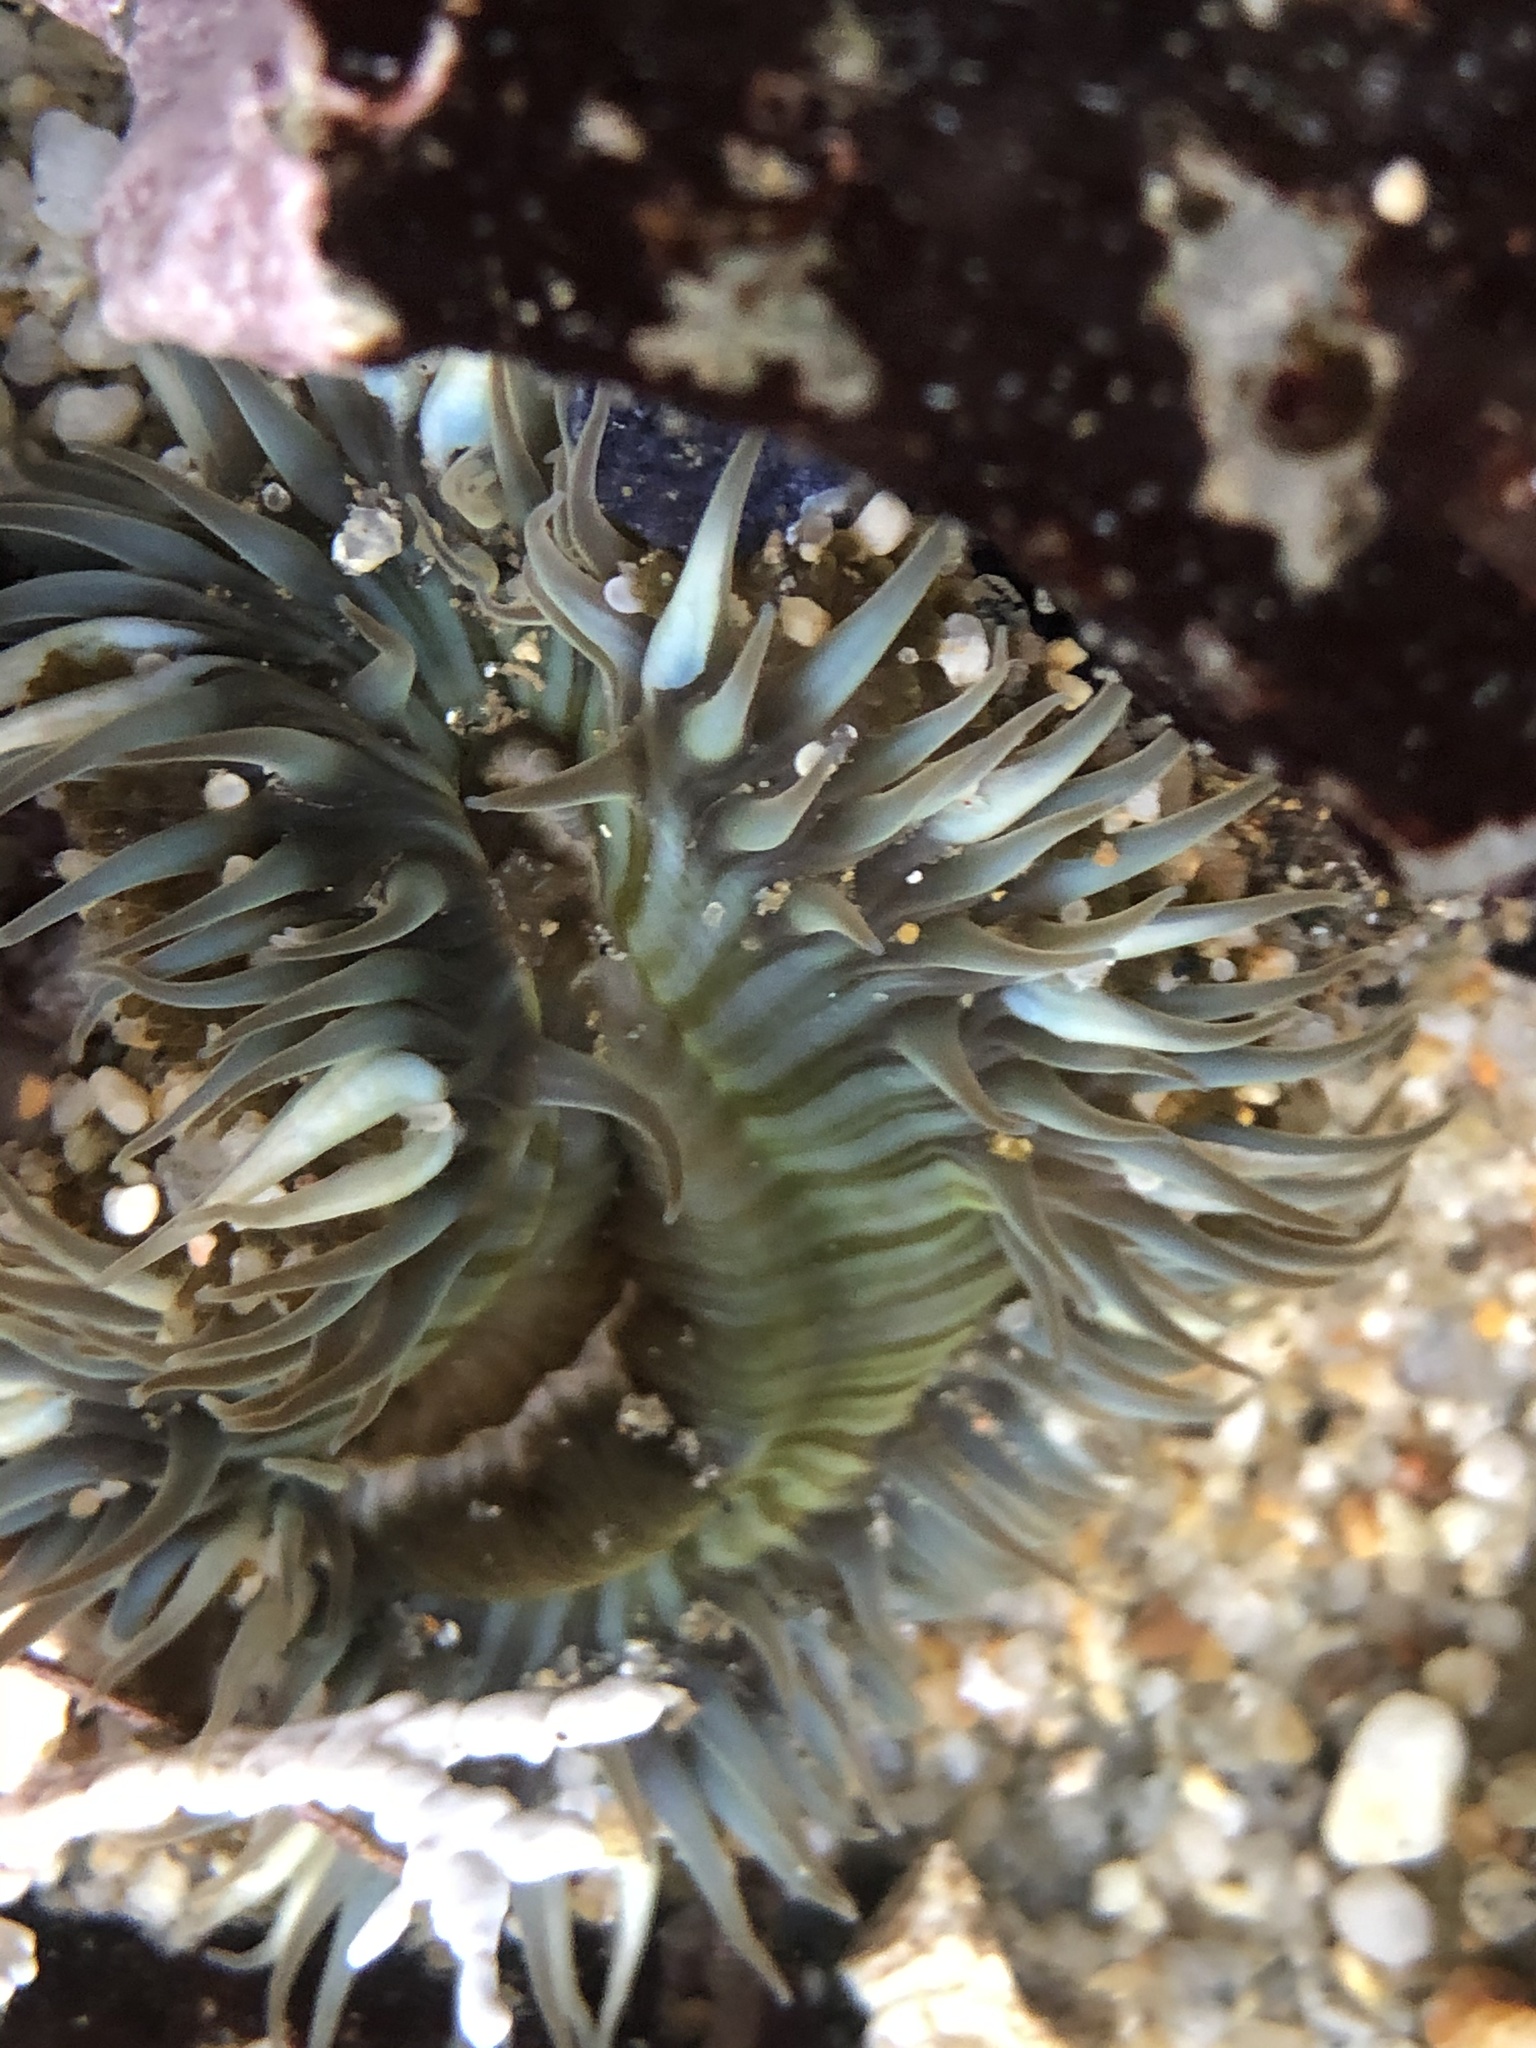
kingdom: Animalia
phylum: Cnidaria
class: Anthozoa
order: Actiniaria
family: Actiniidae
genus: Anthopleura
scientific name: Anthopleura sola
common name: Sun anemone
